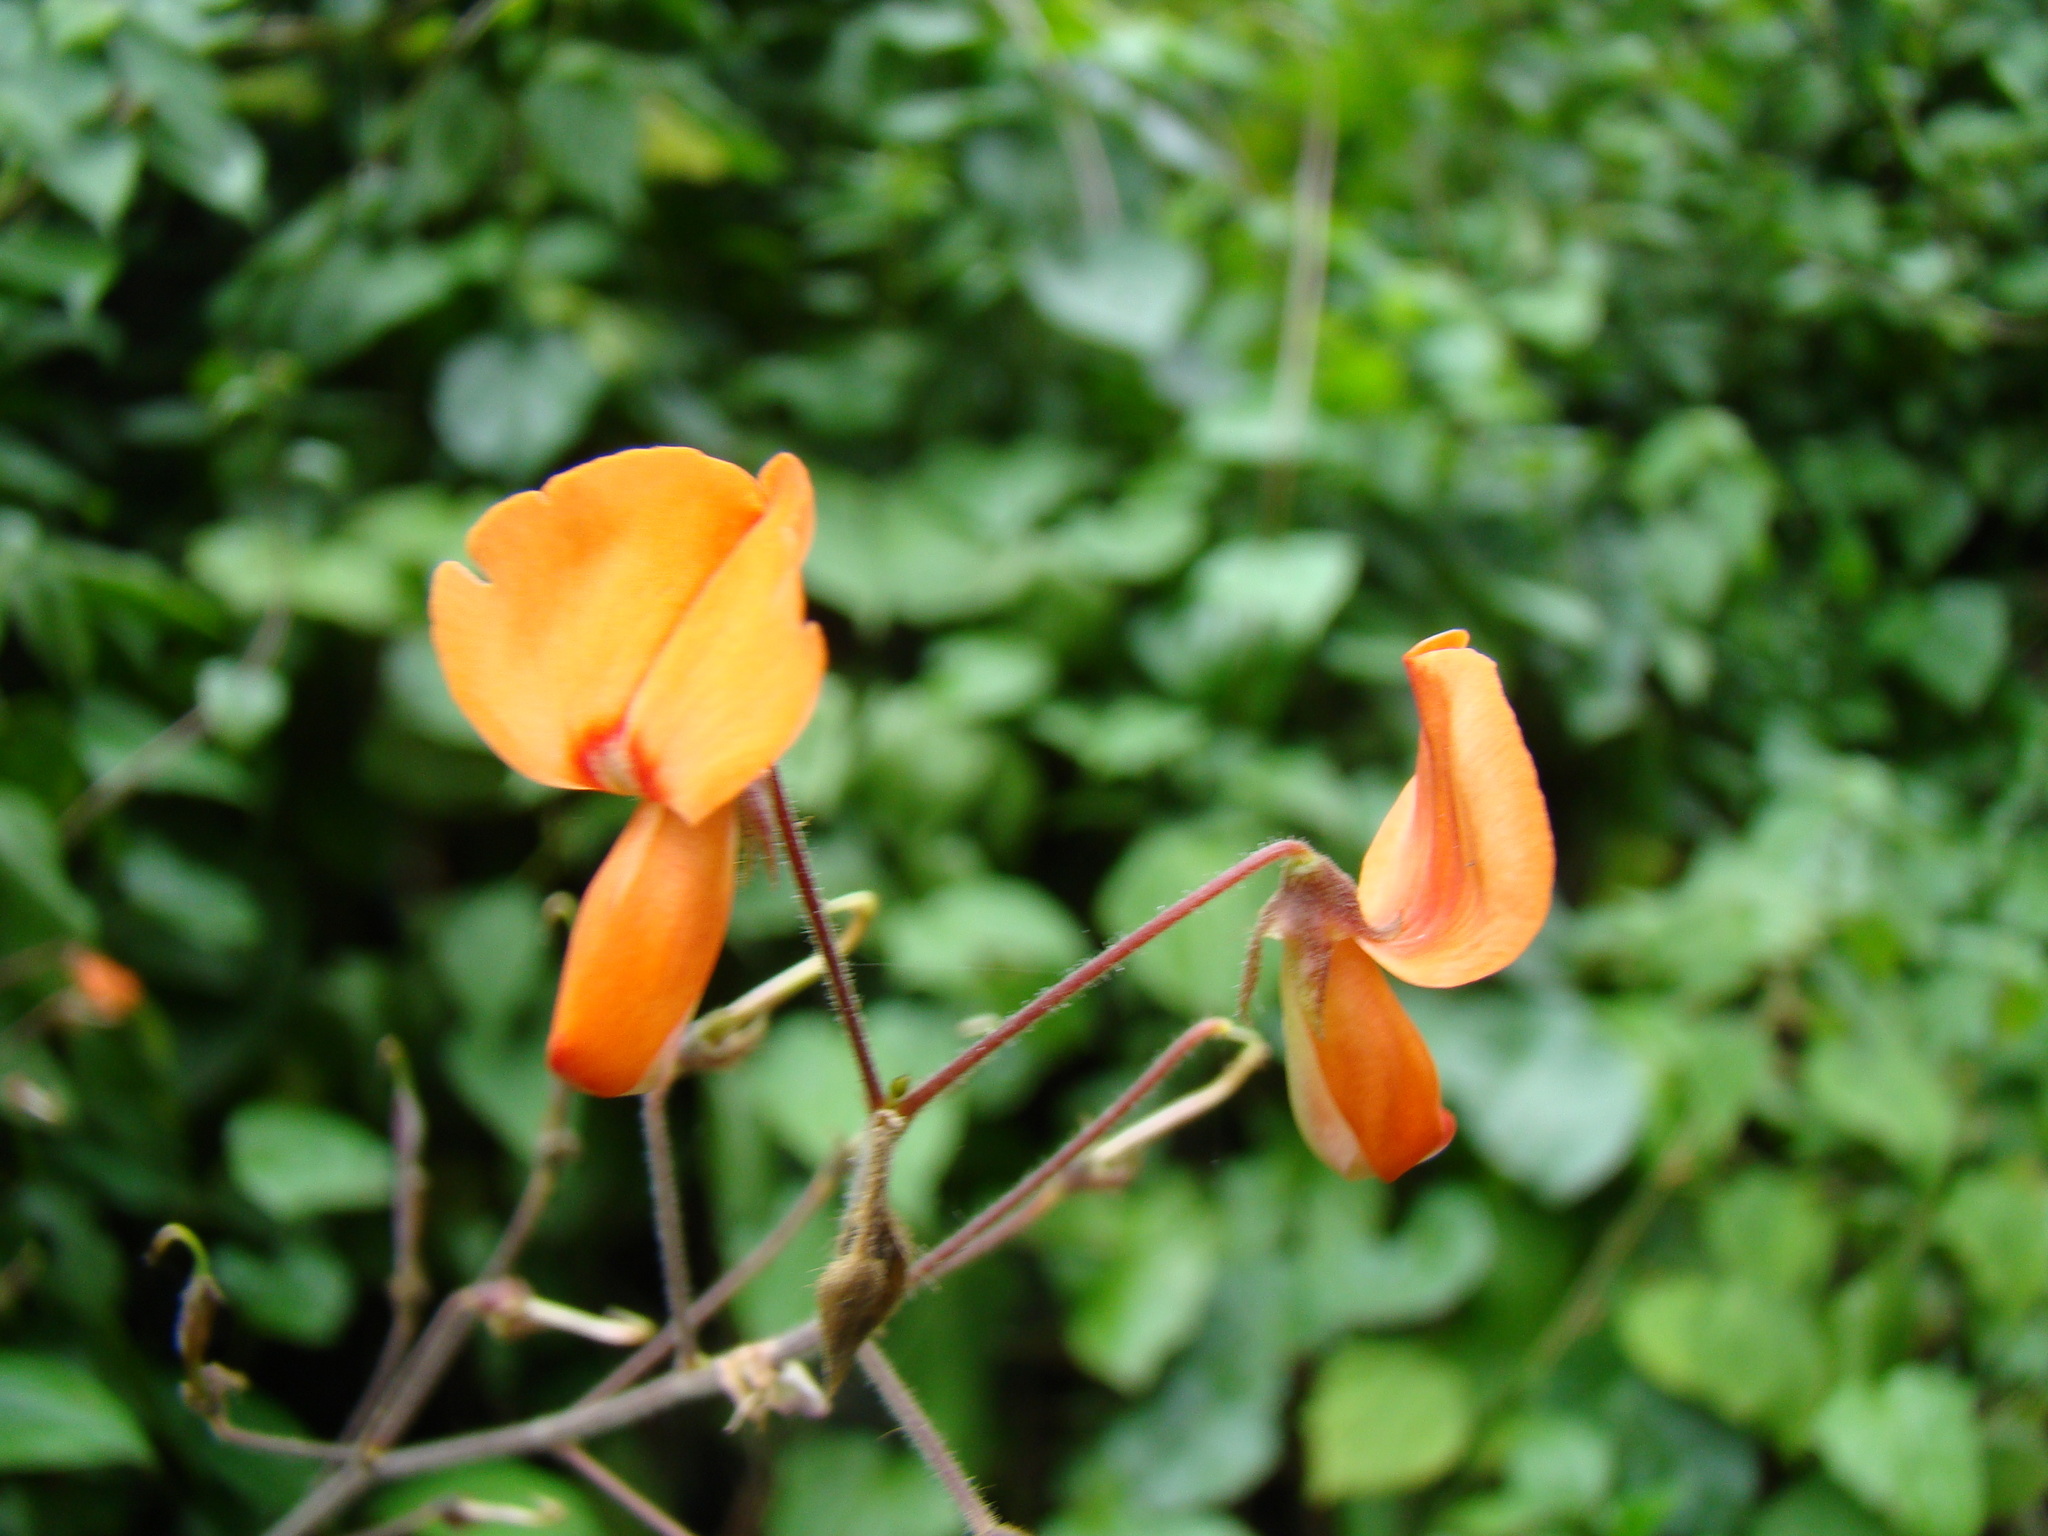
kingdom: Plantae
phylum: Tracheophyta
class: Magnoliopsida
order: Fabales
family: Fabaceae
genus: Hylodesmum
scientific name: Hylodesmum repandum
